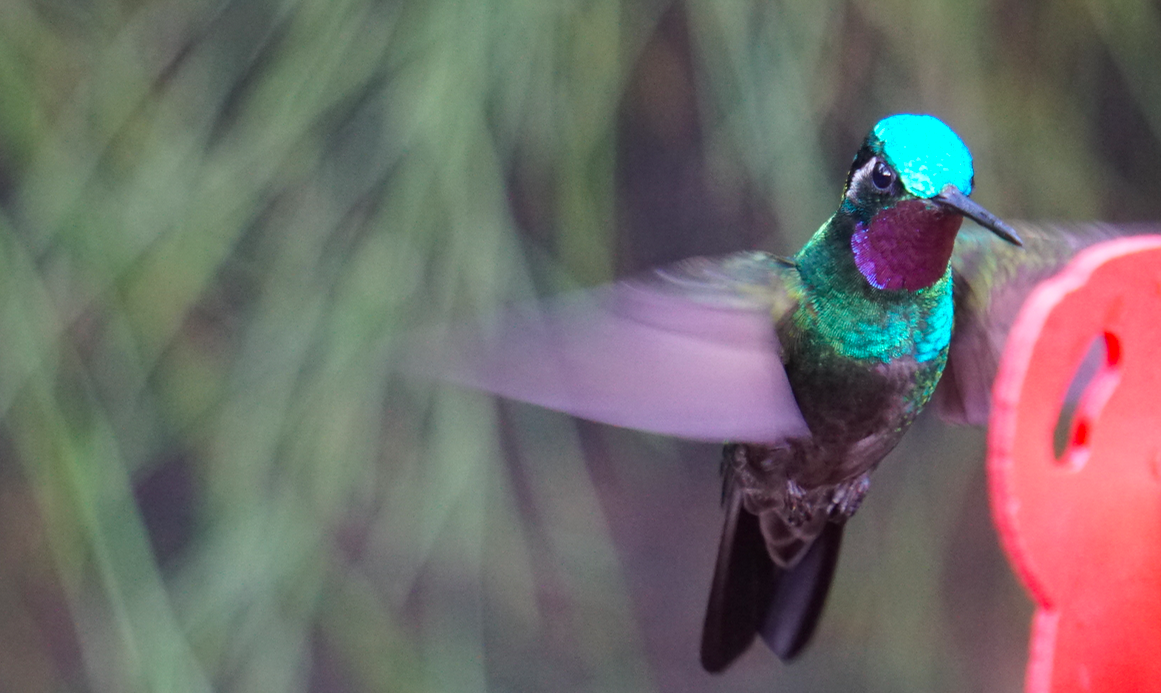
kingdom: Animalia
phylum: Chordata
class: Aves
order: Apodiformes
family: Trochilidae
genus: Lampornis
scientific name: Lampornis calolaemus
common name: Purple-throated mountain-gem
